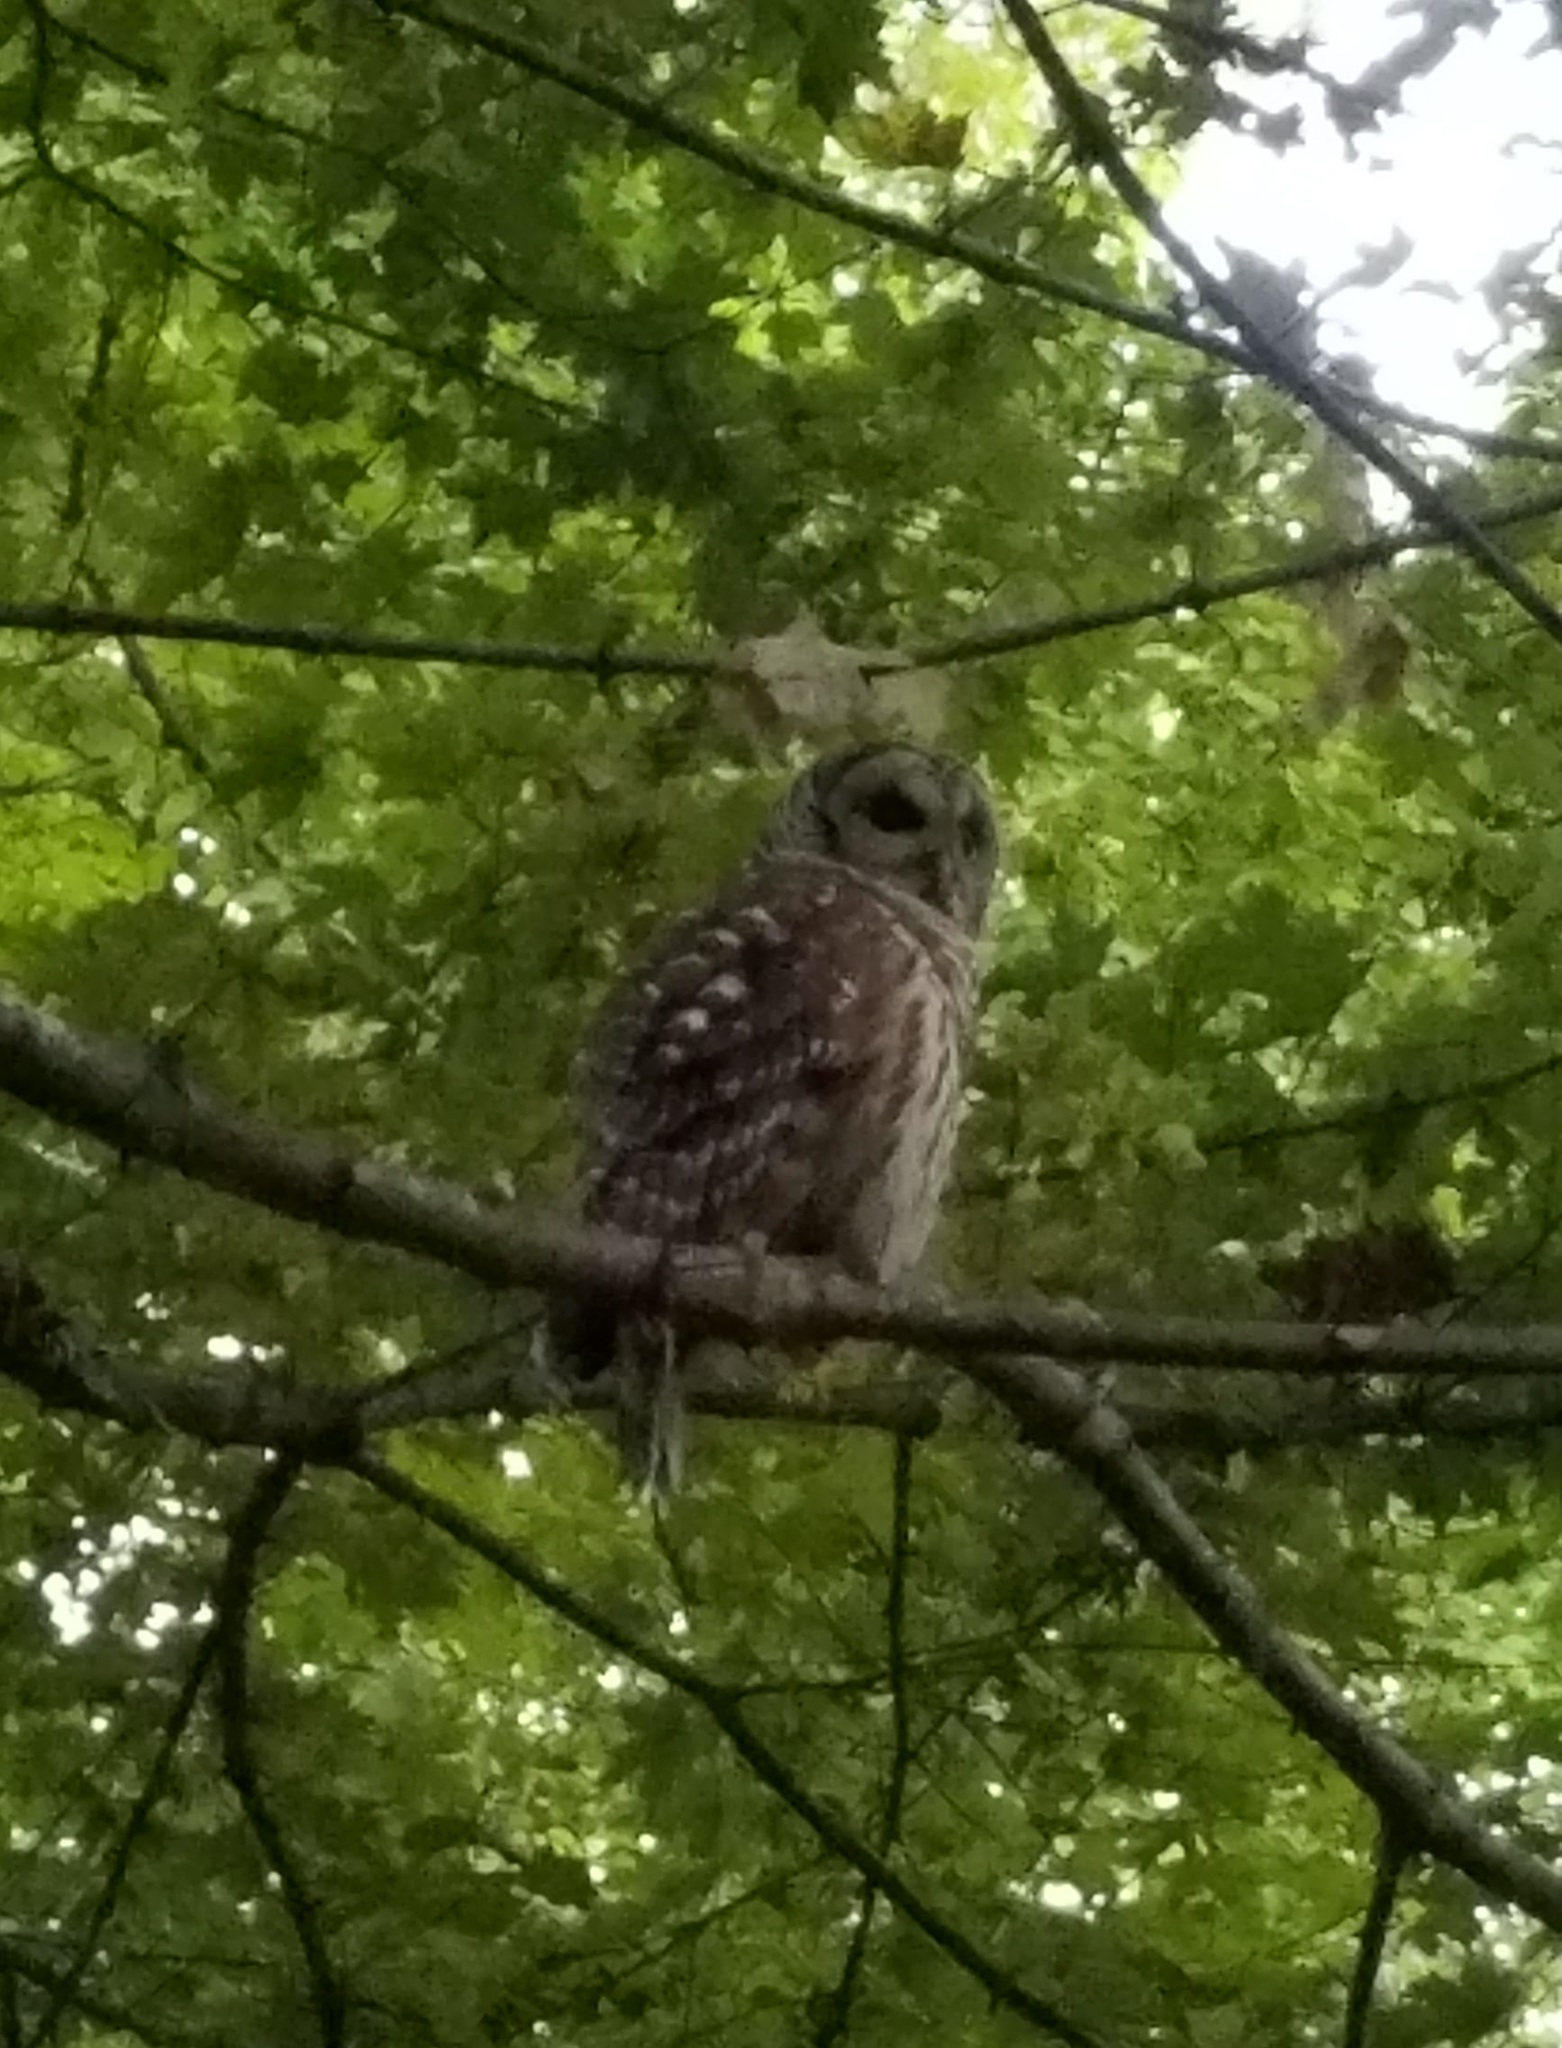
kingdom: Animalia
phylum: Chordata
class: Aves
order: Strigiformes
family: Strigidae
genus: Strix
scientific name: Strix varia
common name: Barred owl
